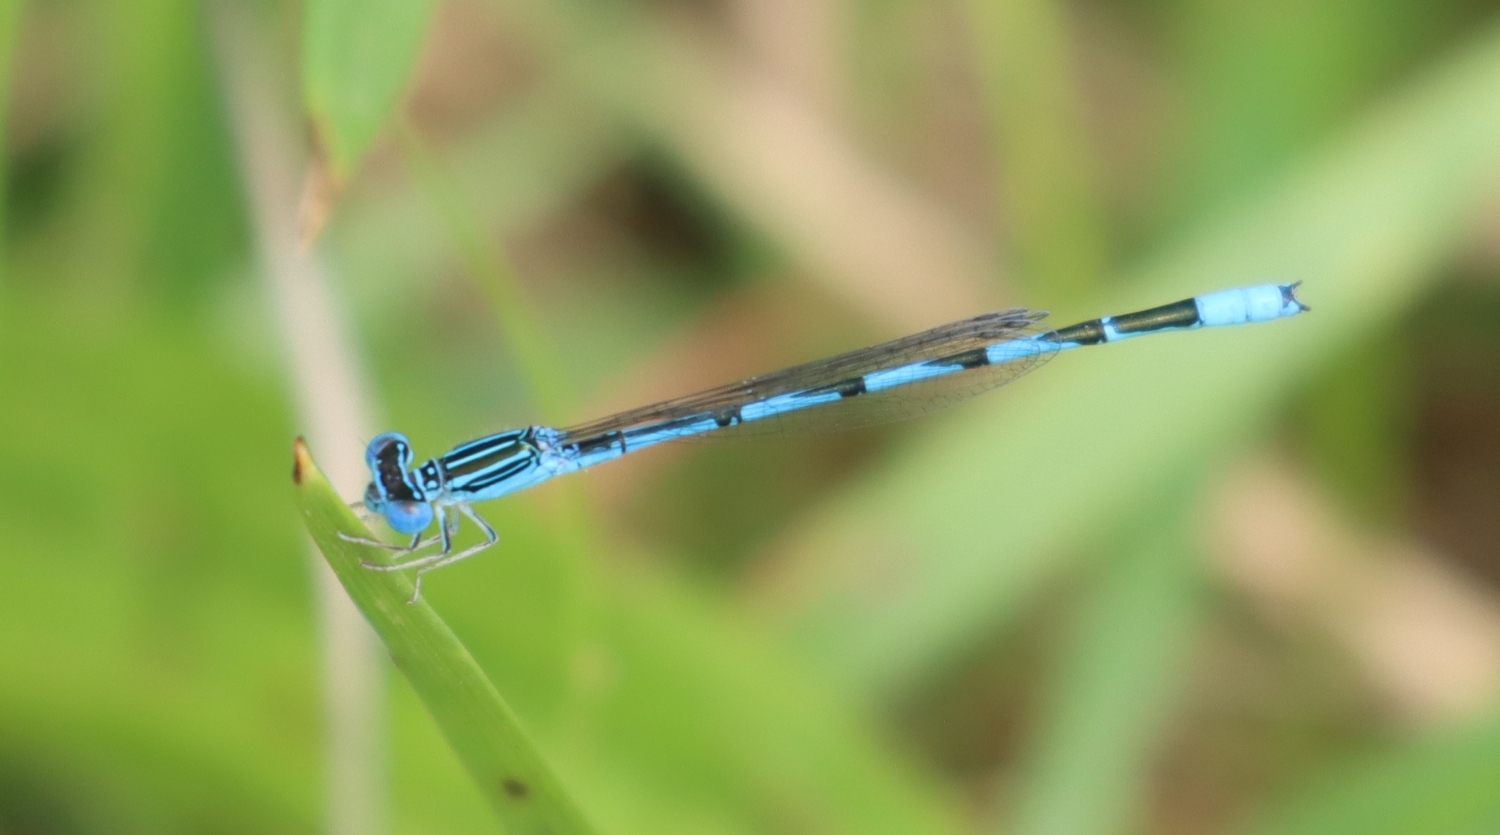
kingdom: Animalia
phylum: Arthropoda
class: Insecta
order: Odonata
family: Coenagrionidae
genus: Enallagma
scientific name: Enallagma basidens
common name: Double-striped bluet
